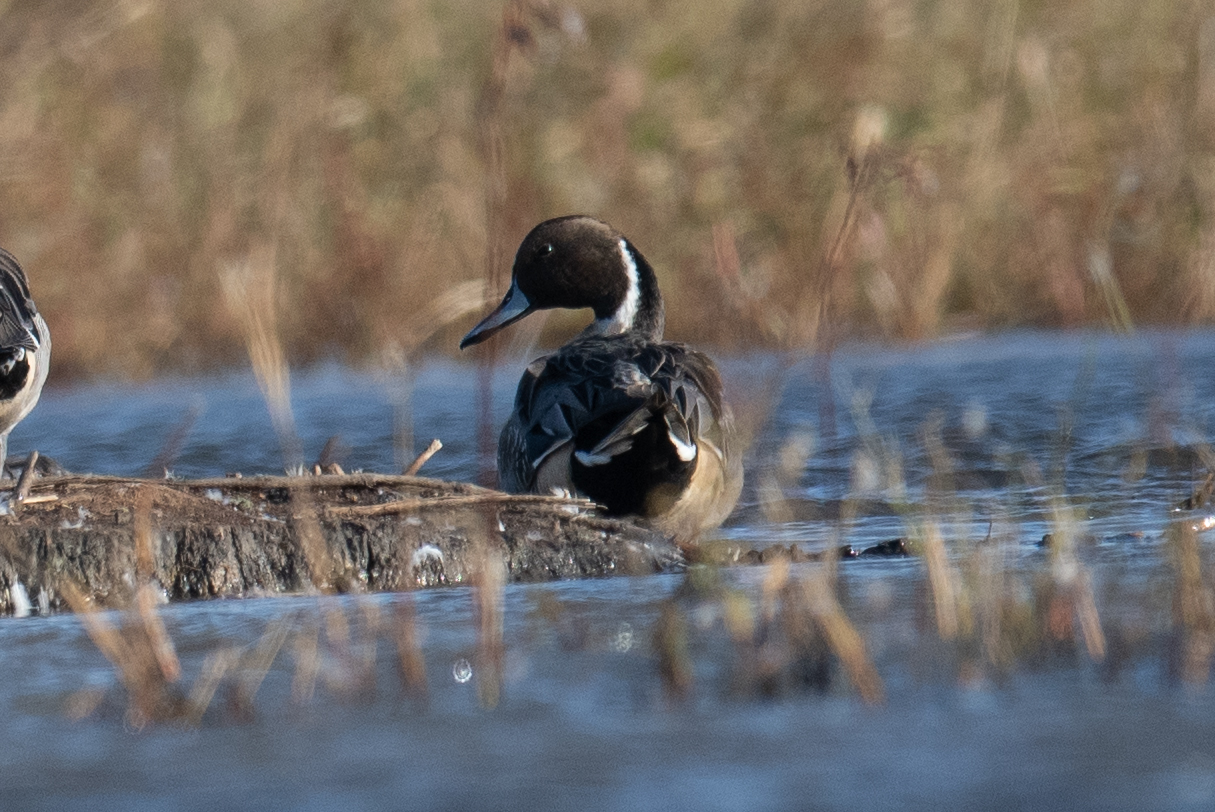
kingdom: Animalia
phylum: Chordata
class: Aves
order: Anseriformes
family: Anatidae
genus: Anas
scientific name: Anas acuta
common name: Northern pintail
